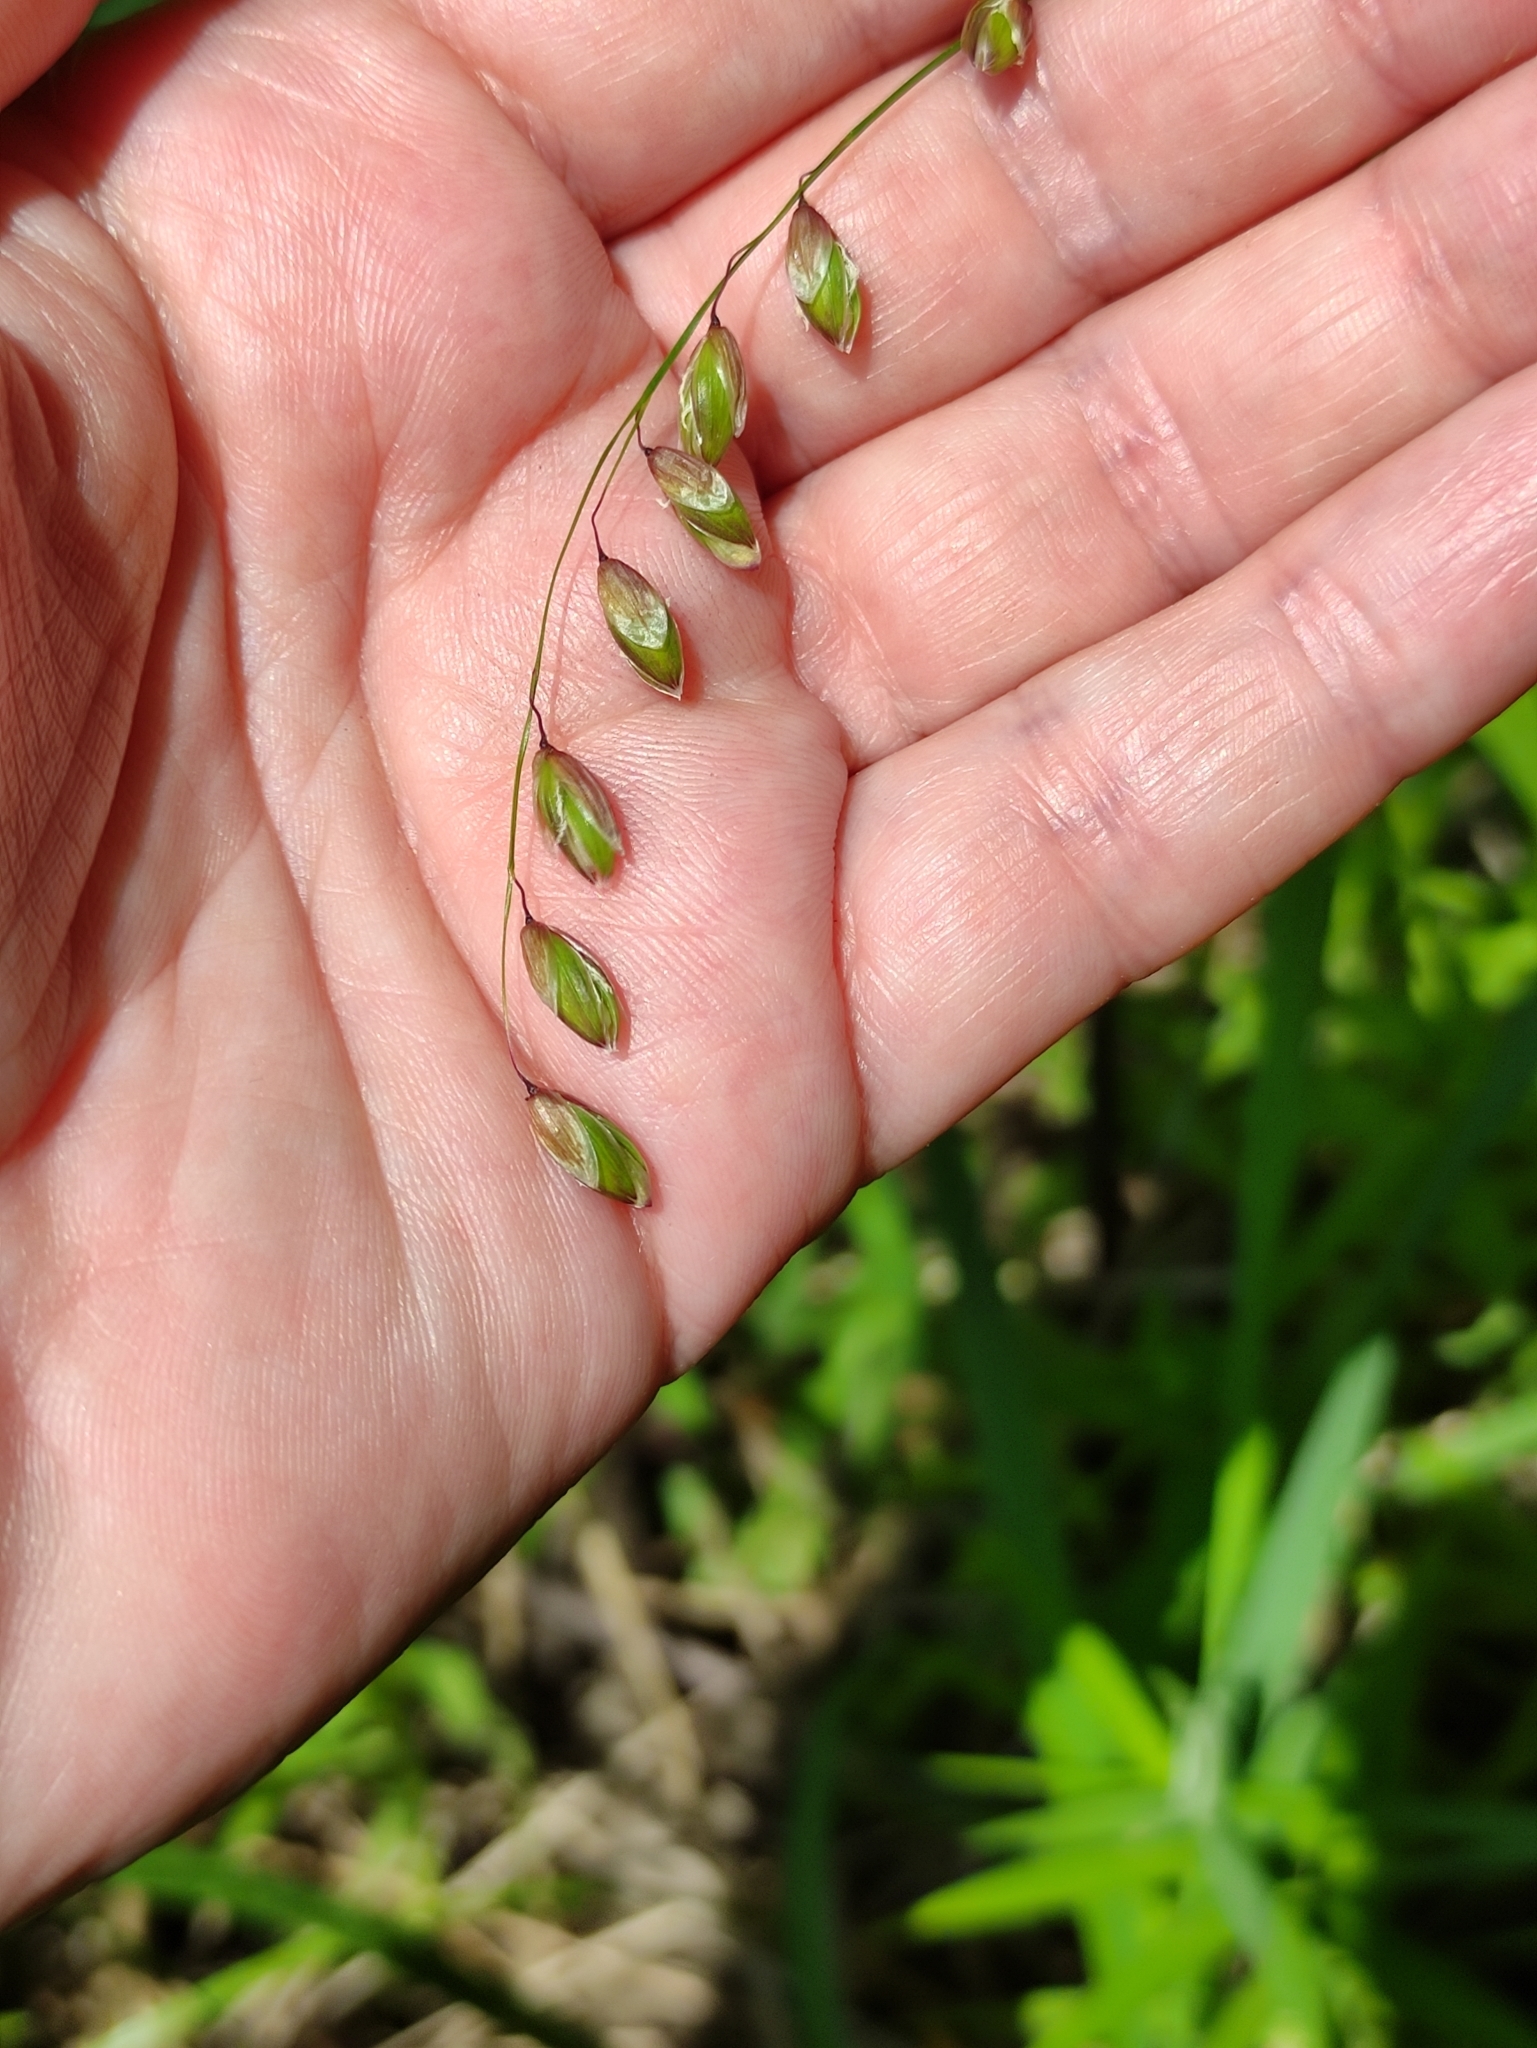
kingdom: Plantae
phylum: Tracheophyta
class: Liliopsida
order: Poales
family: Poaceae
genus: Melica
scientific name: Melica nutans
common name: Mountain melick
